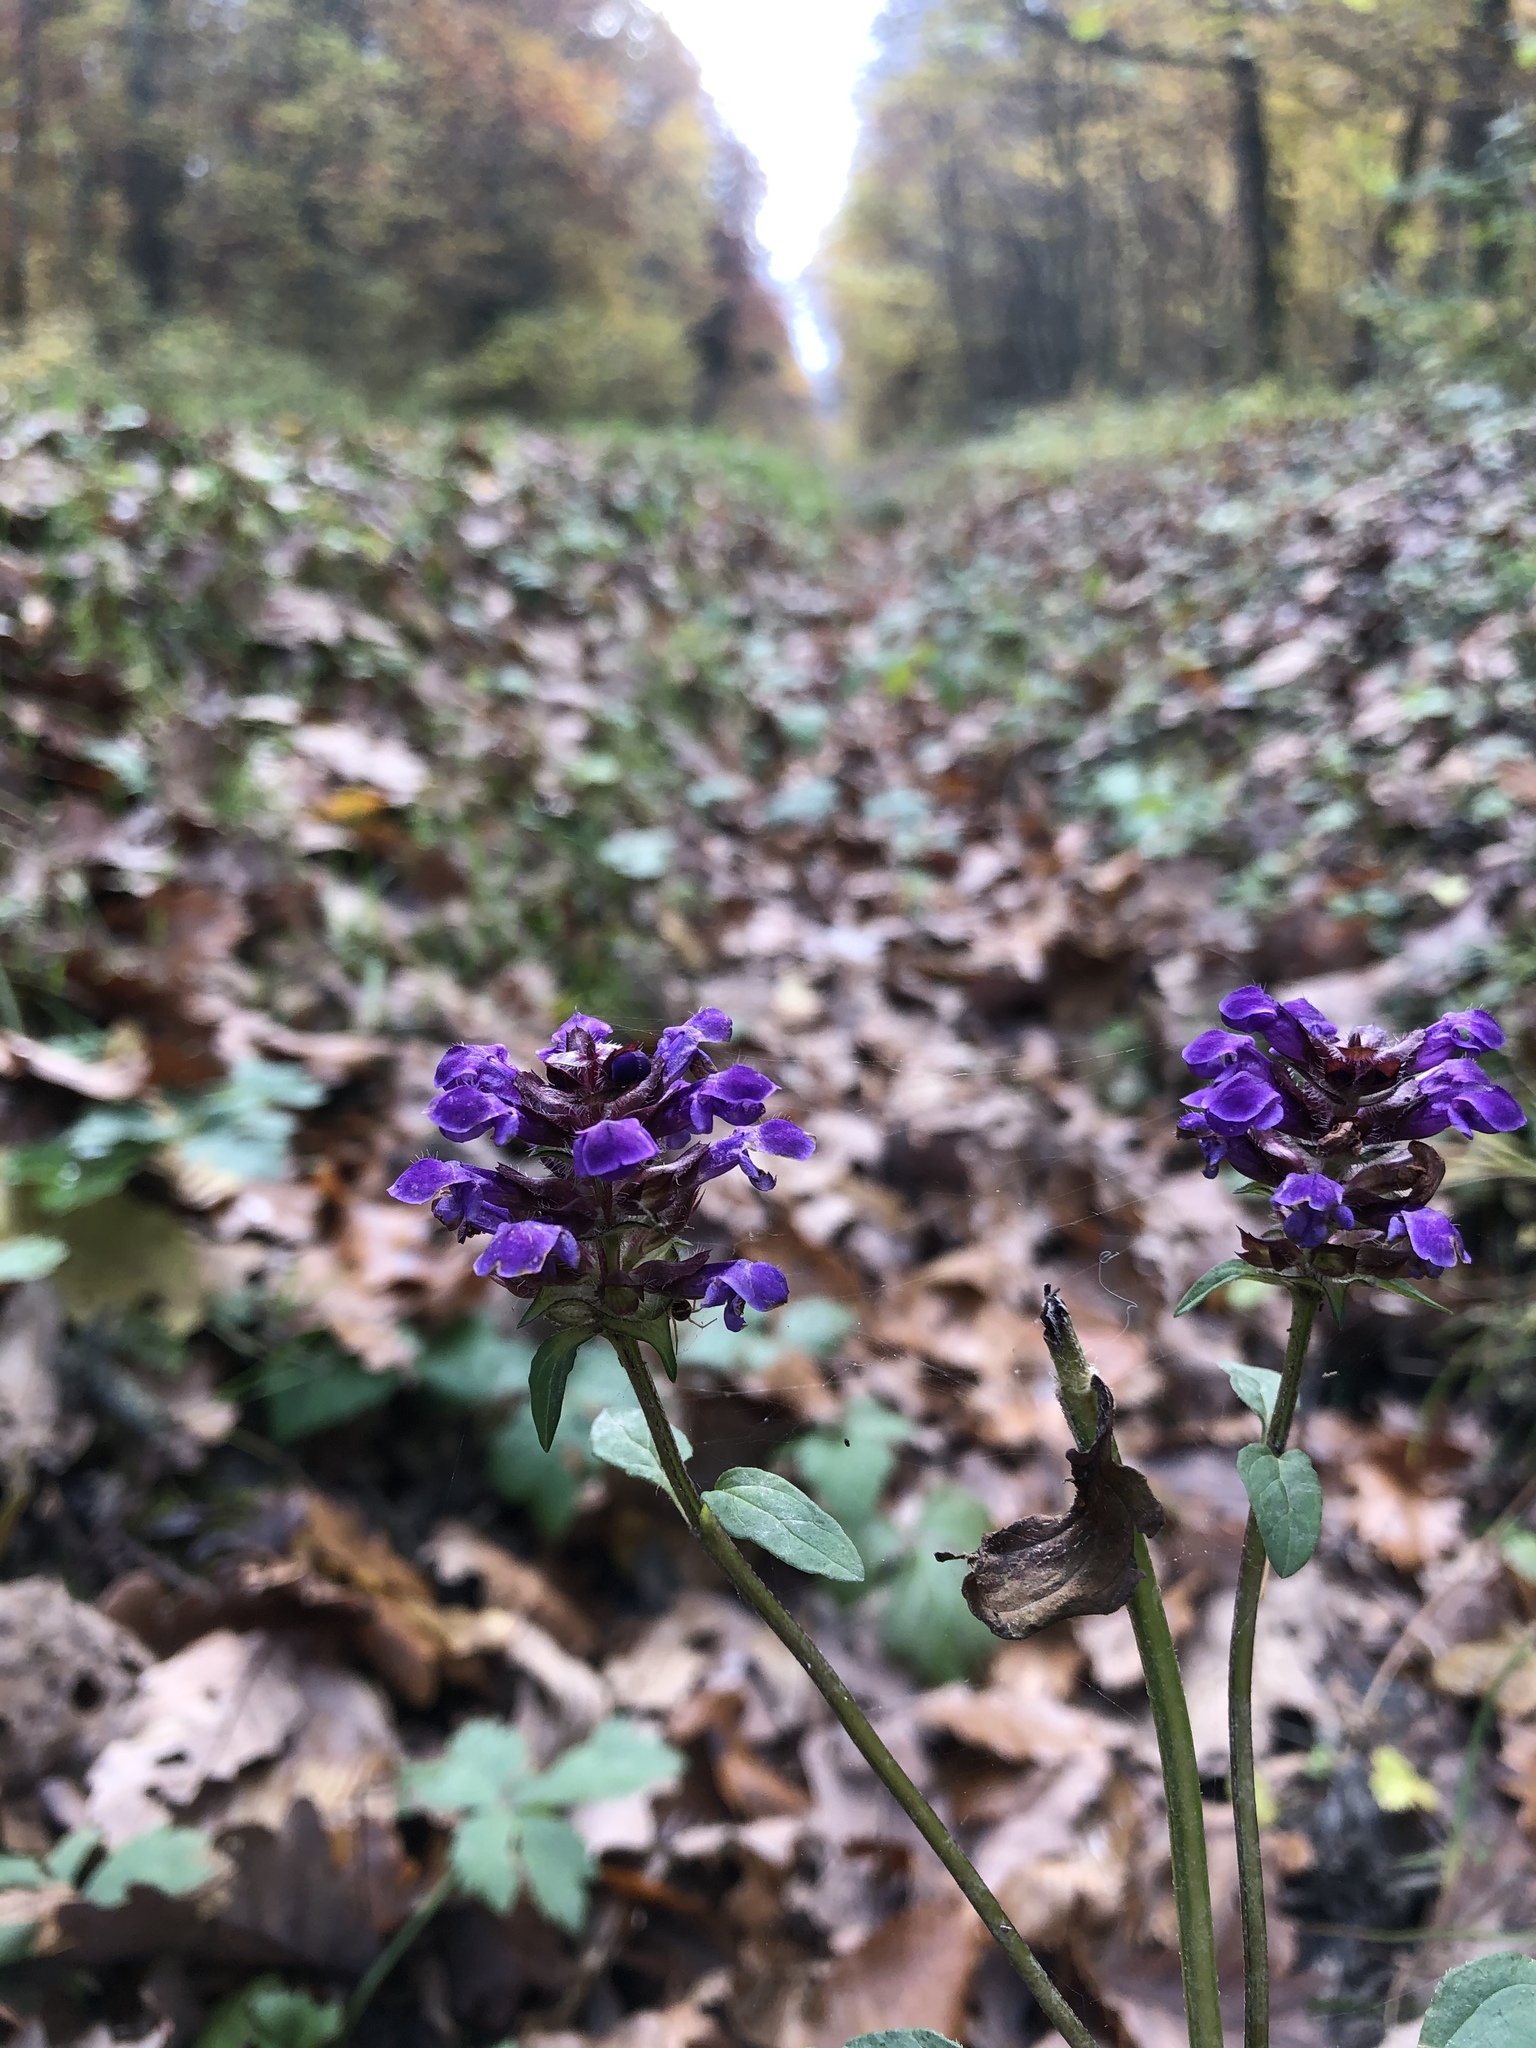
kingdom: Plantae
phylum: Tracheophyta
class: Magnoliopsida
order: Lamiales
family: Lamiaceae
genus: Prunella
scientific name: Prunella vulgaris
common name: Heal-all
